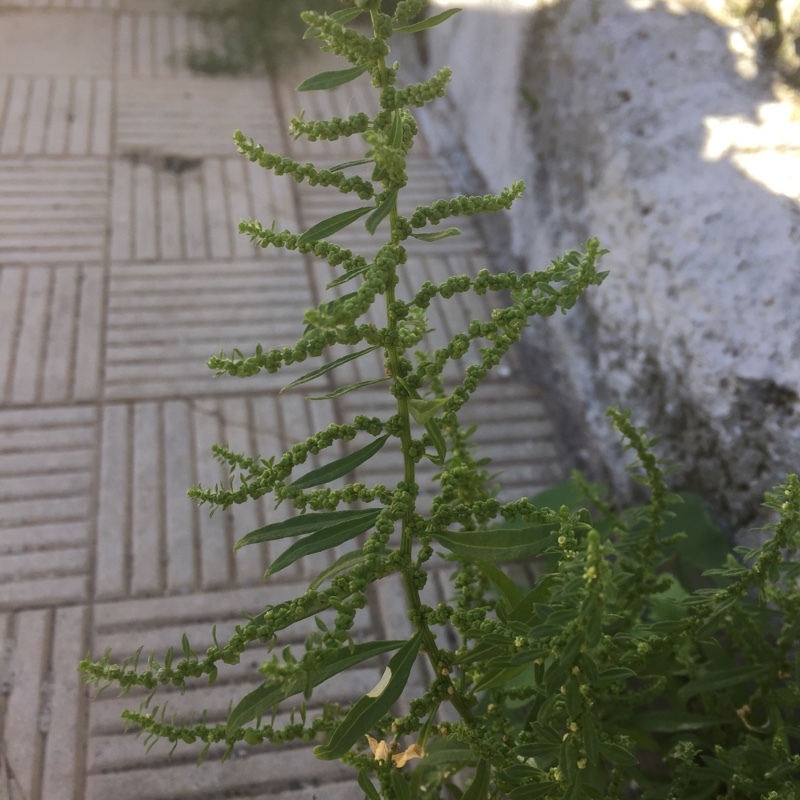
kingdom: Plantae
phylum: Tracheophyta
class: Magnoliopsida
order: Caryophyllales
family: Amaranthaceae
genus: Dysphania
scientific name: Dysphania ambrosioides
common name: Wormseed
